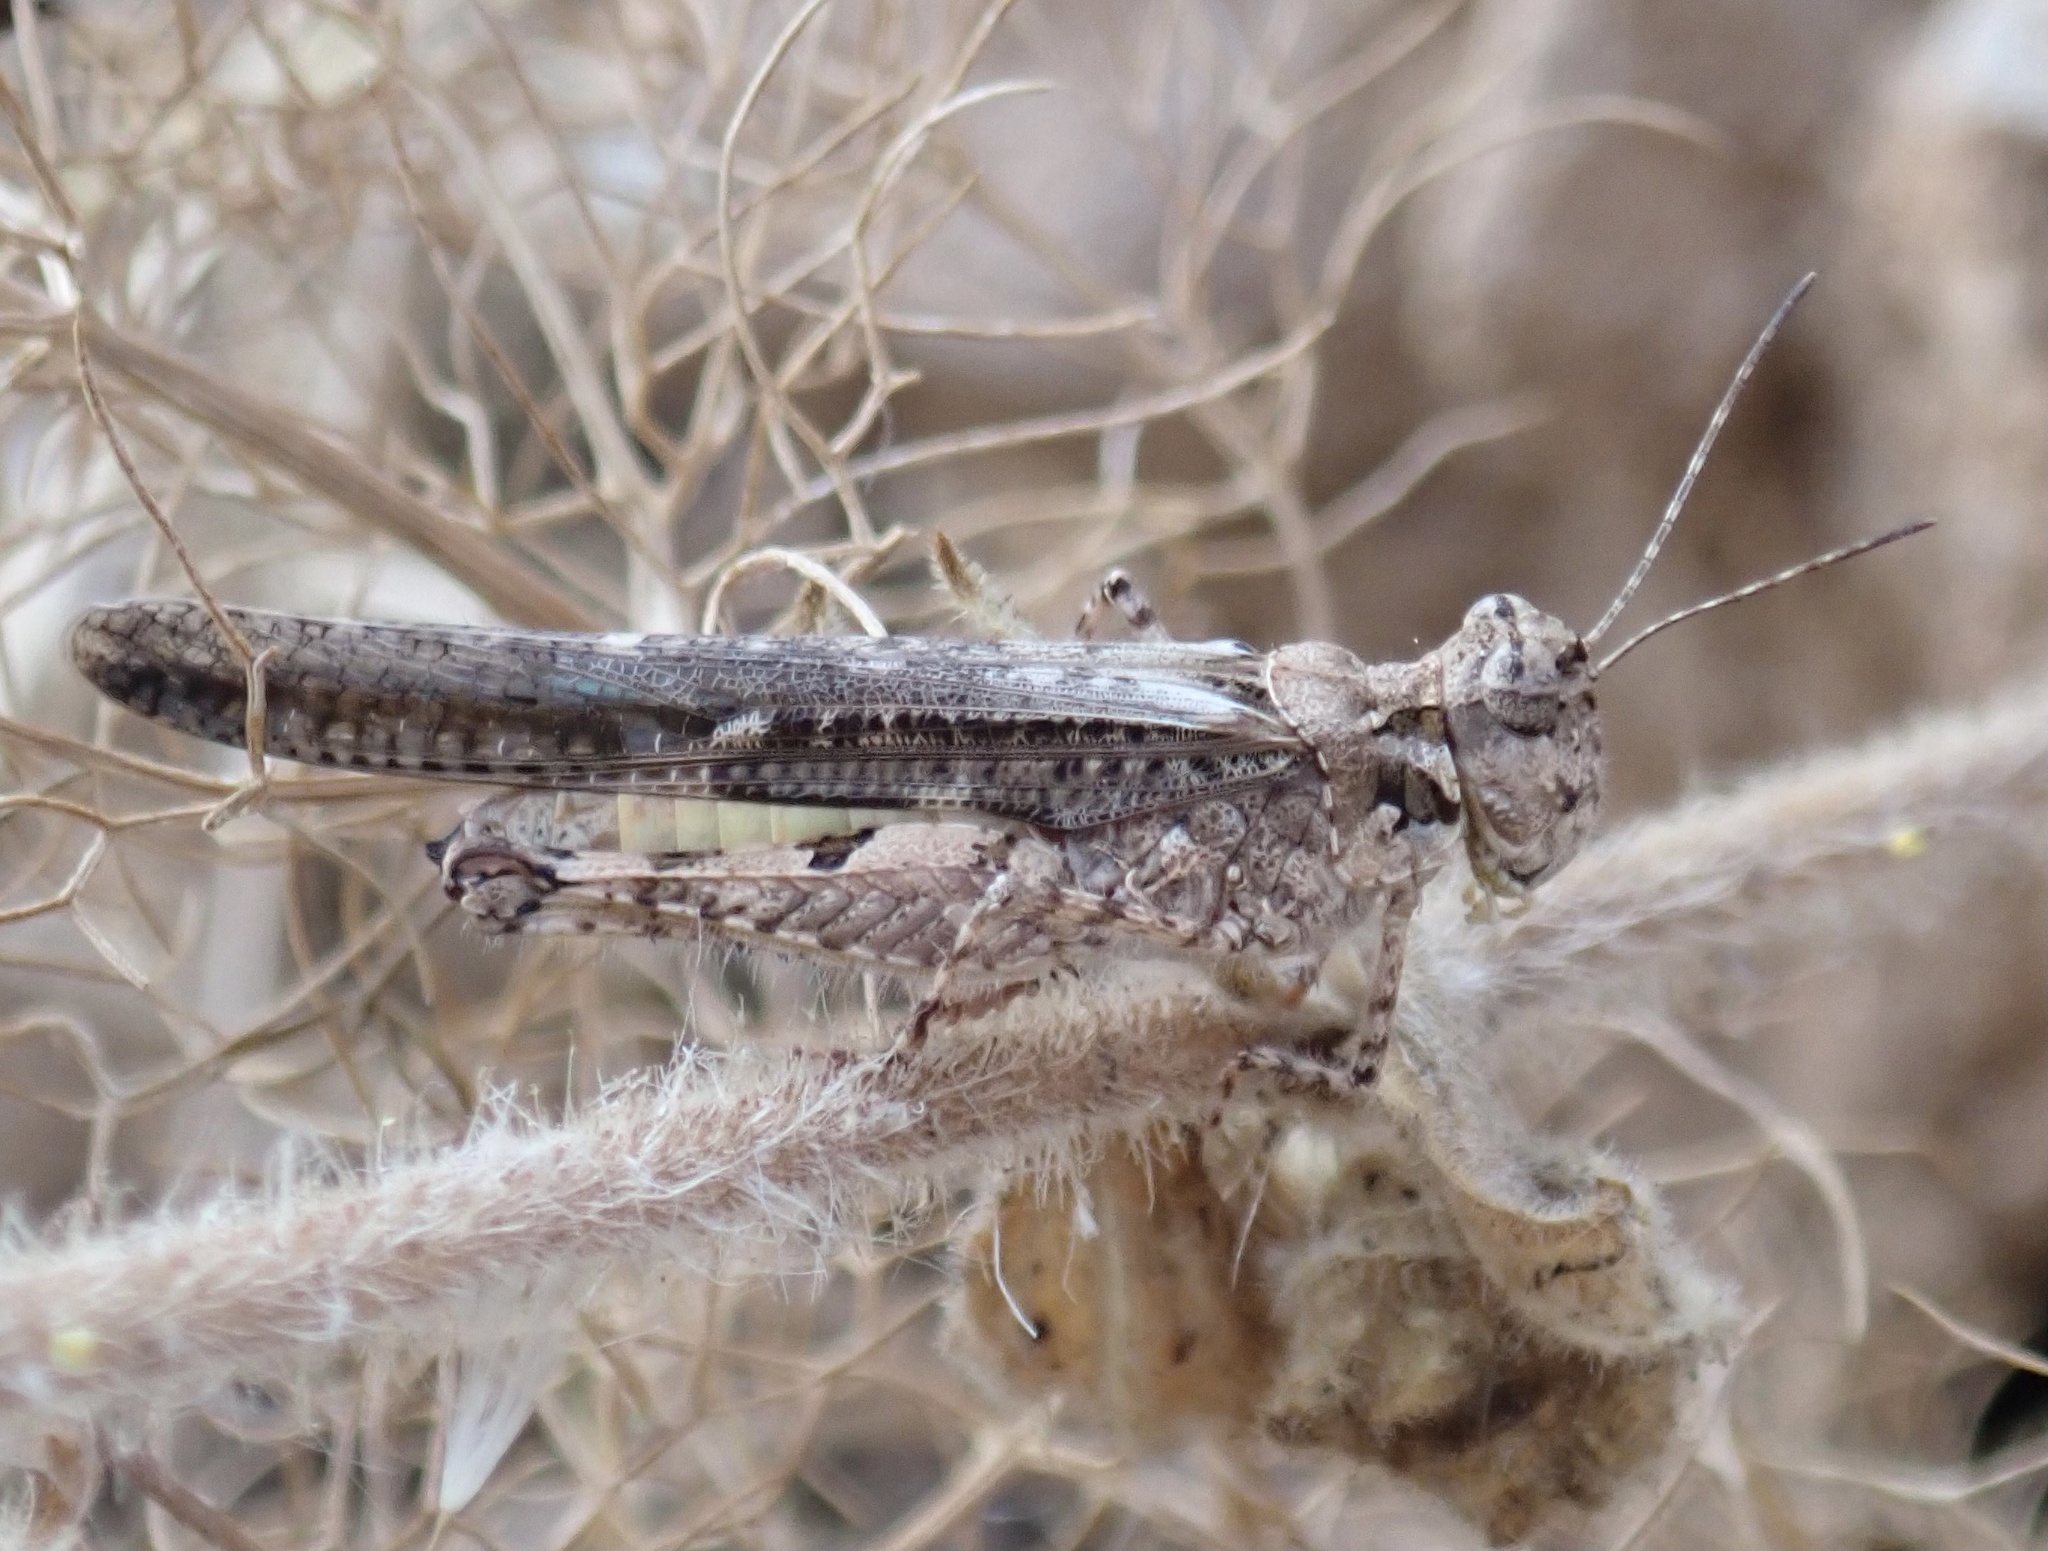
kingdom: Animalia
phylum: Arthropoda
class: Insecta
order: Orthoptera
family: Acrididae
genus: Acrotylus
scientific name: Acrotylus patruelis
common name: Slender burrowing grasshopper
